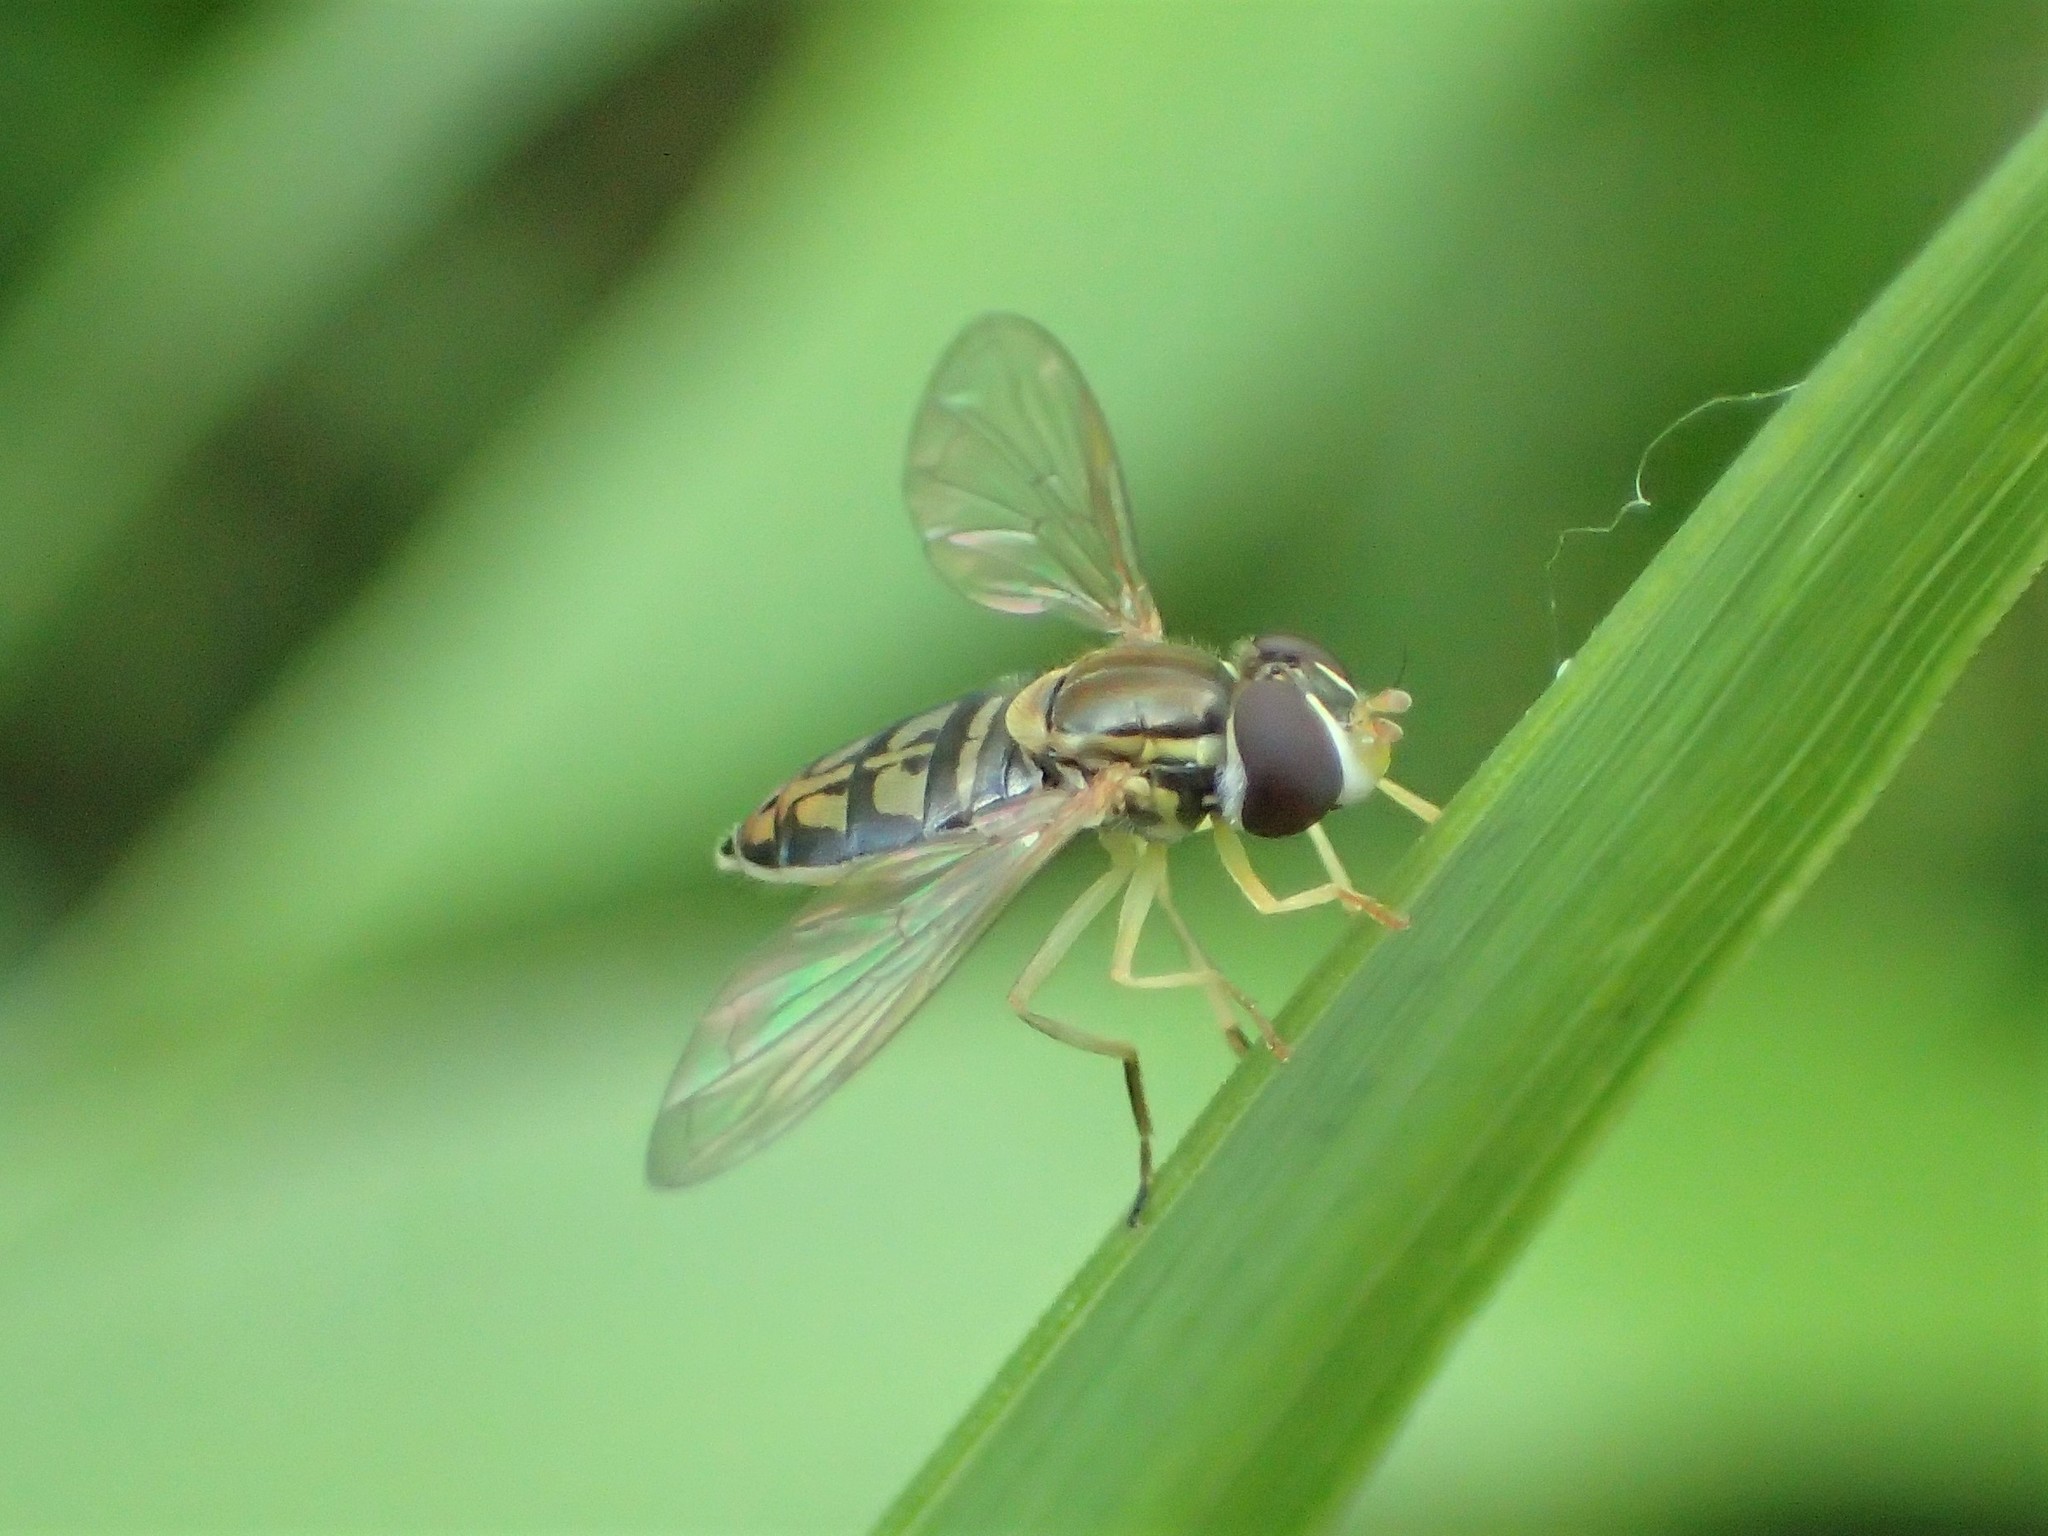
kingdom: Animalia
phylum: Arthropoda
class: Insecta
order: Diptera
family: Syrphidae
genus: Toxomerus
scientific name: Toxomerus marginatus
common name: Syrphid fly
